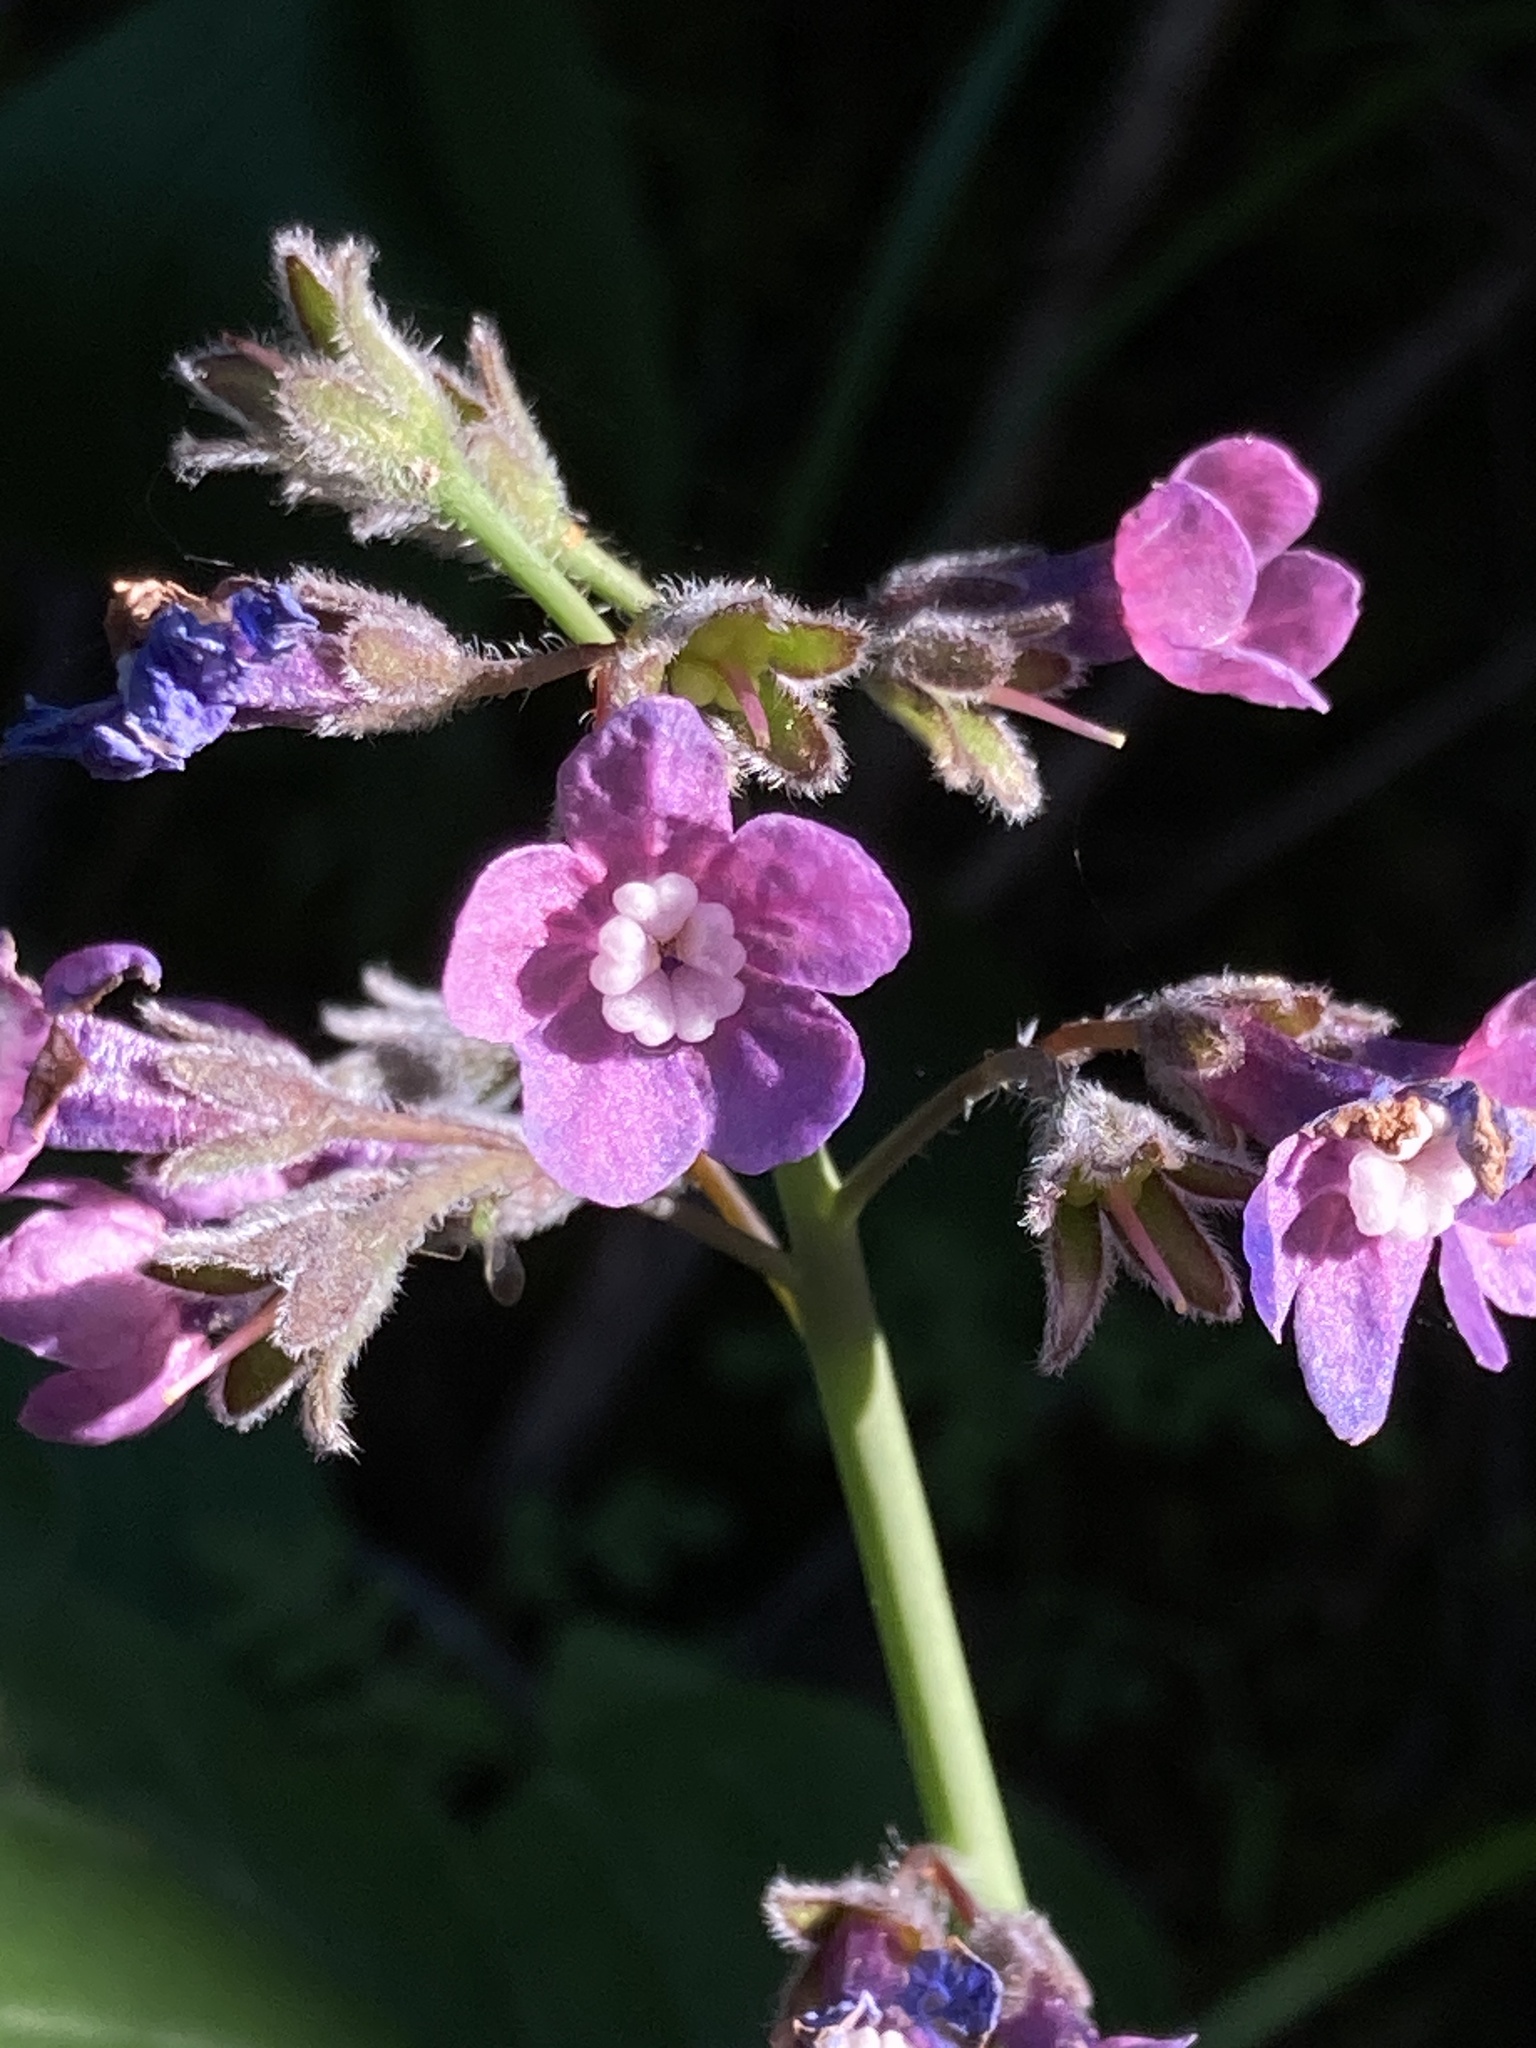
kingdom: Plantae
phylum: Tracheophyta
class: Magnoliopsida
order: Boraginales
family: Boraginaceae
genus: Adelinia
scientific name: Adelinia grande
